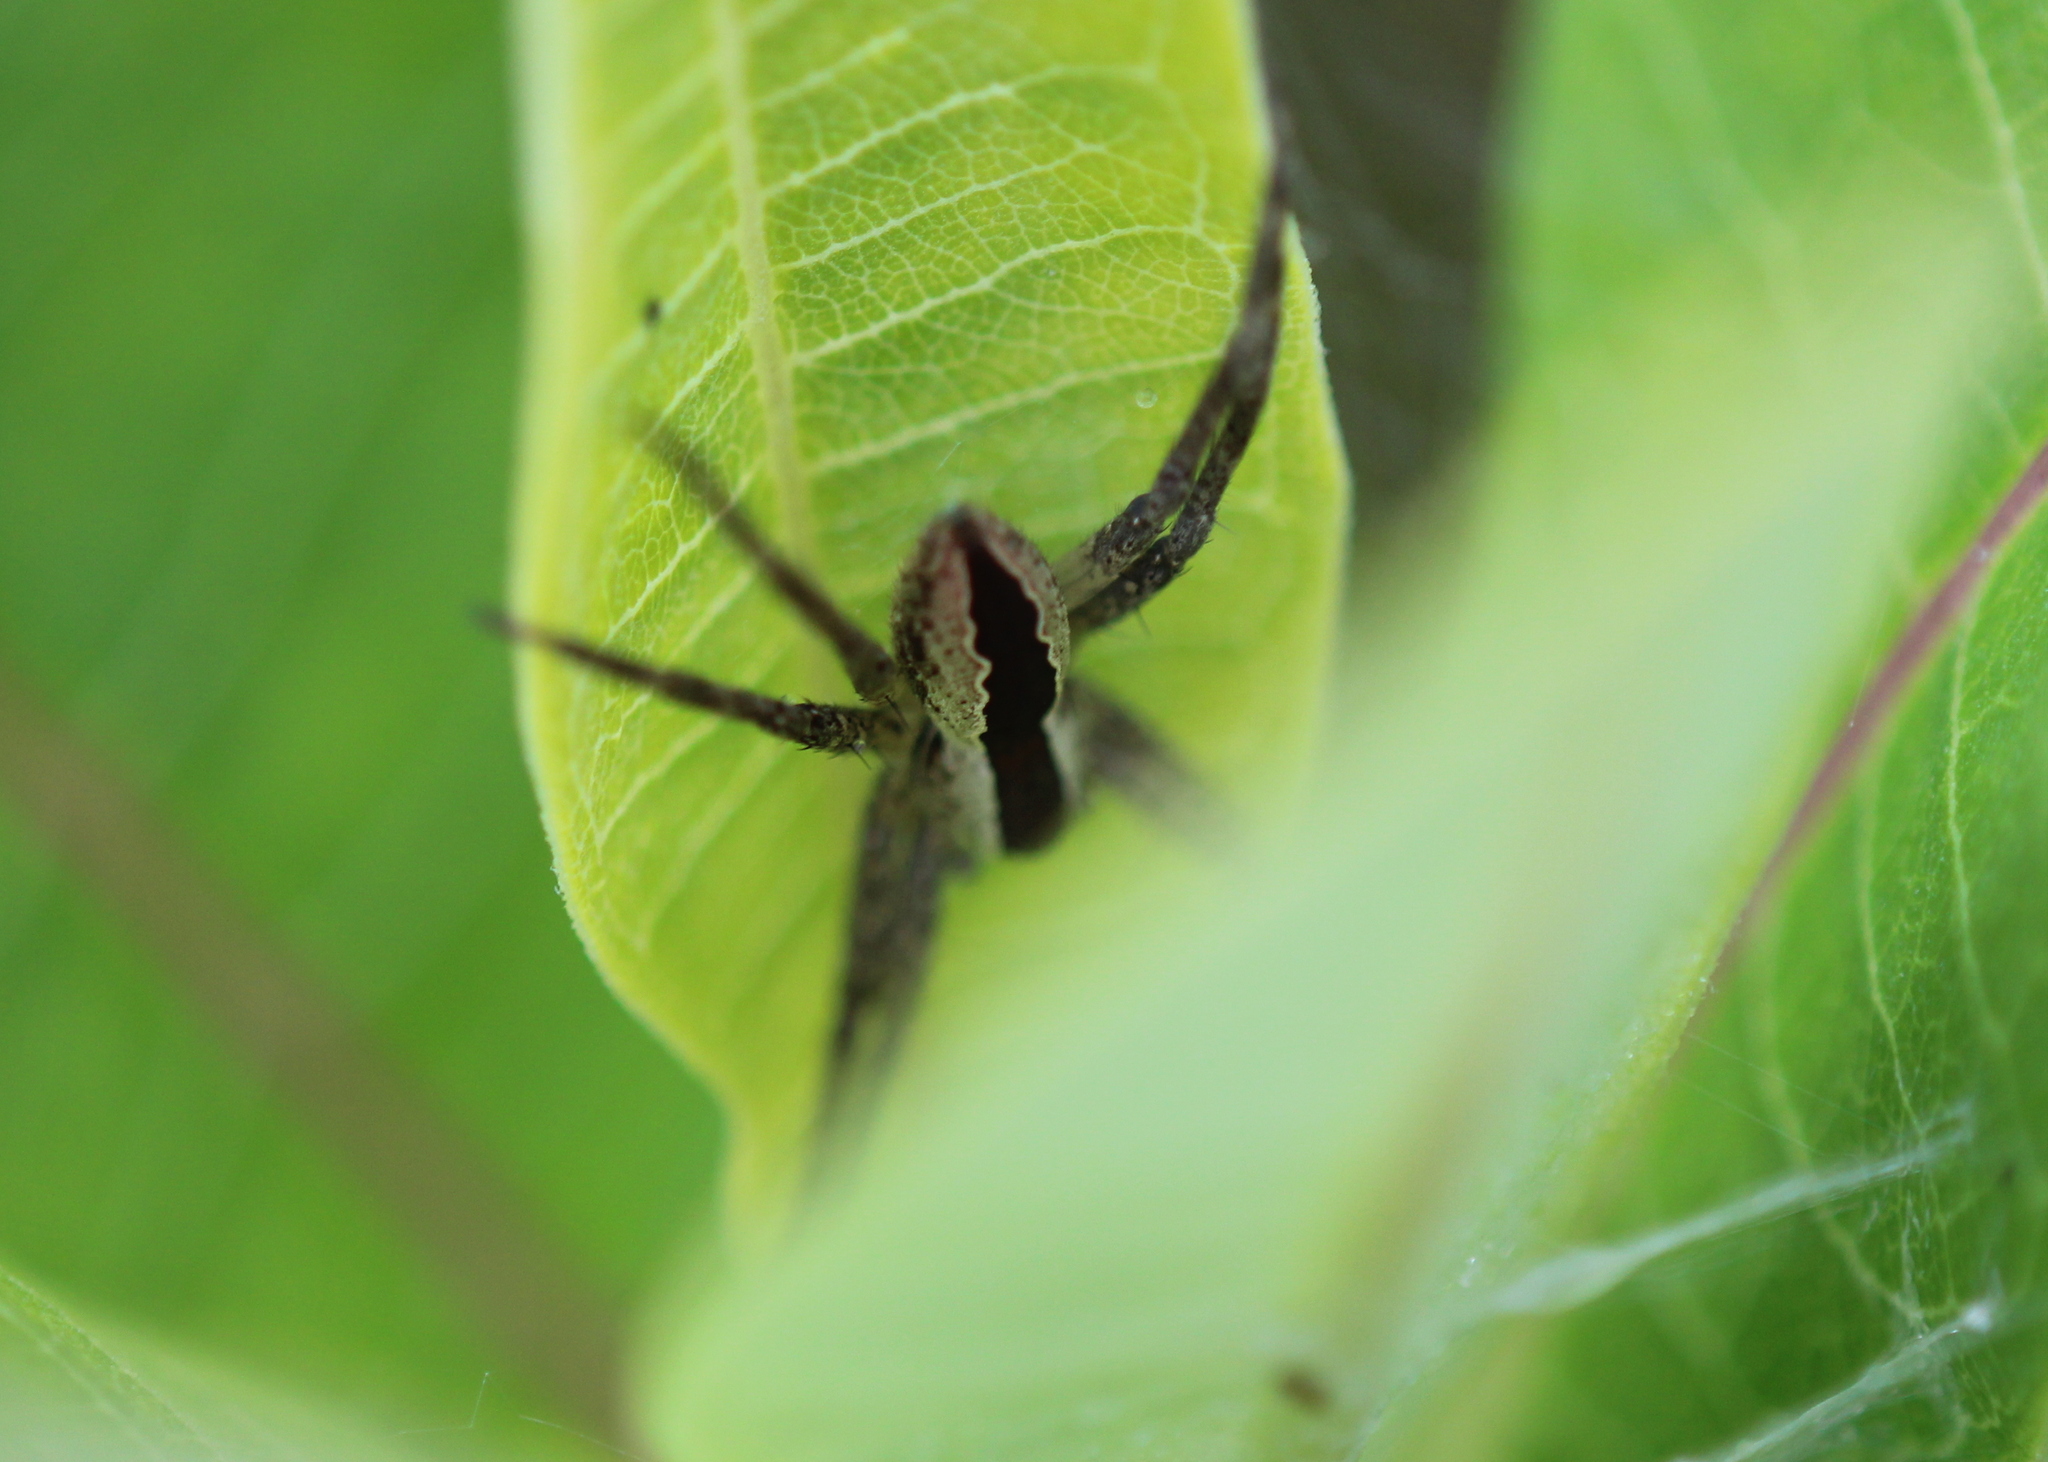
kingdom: Animalia
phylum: Arthropoda
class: Arachnida
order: Araneae
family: Pisauridae
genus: Pisaurina
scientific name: Pisaurina mira
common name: American nursery web spider
